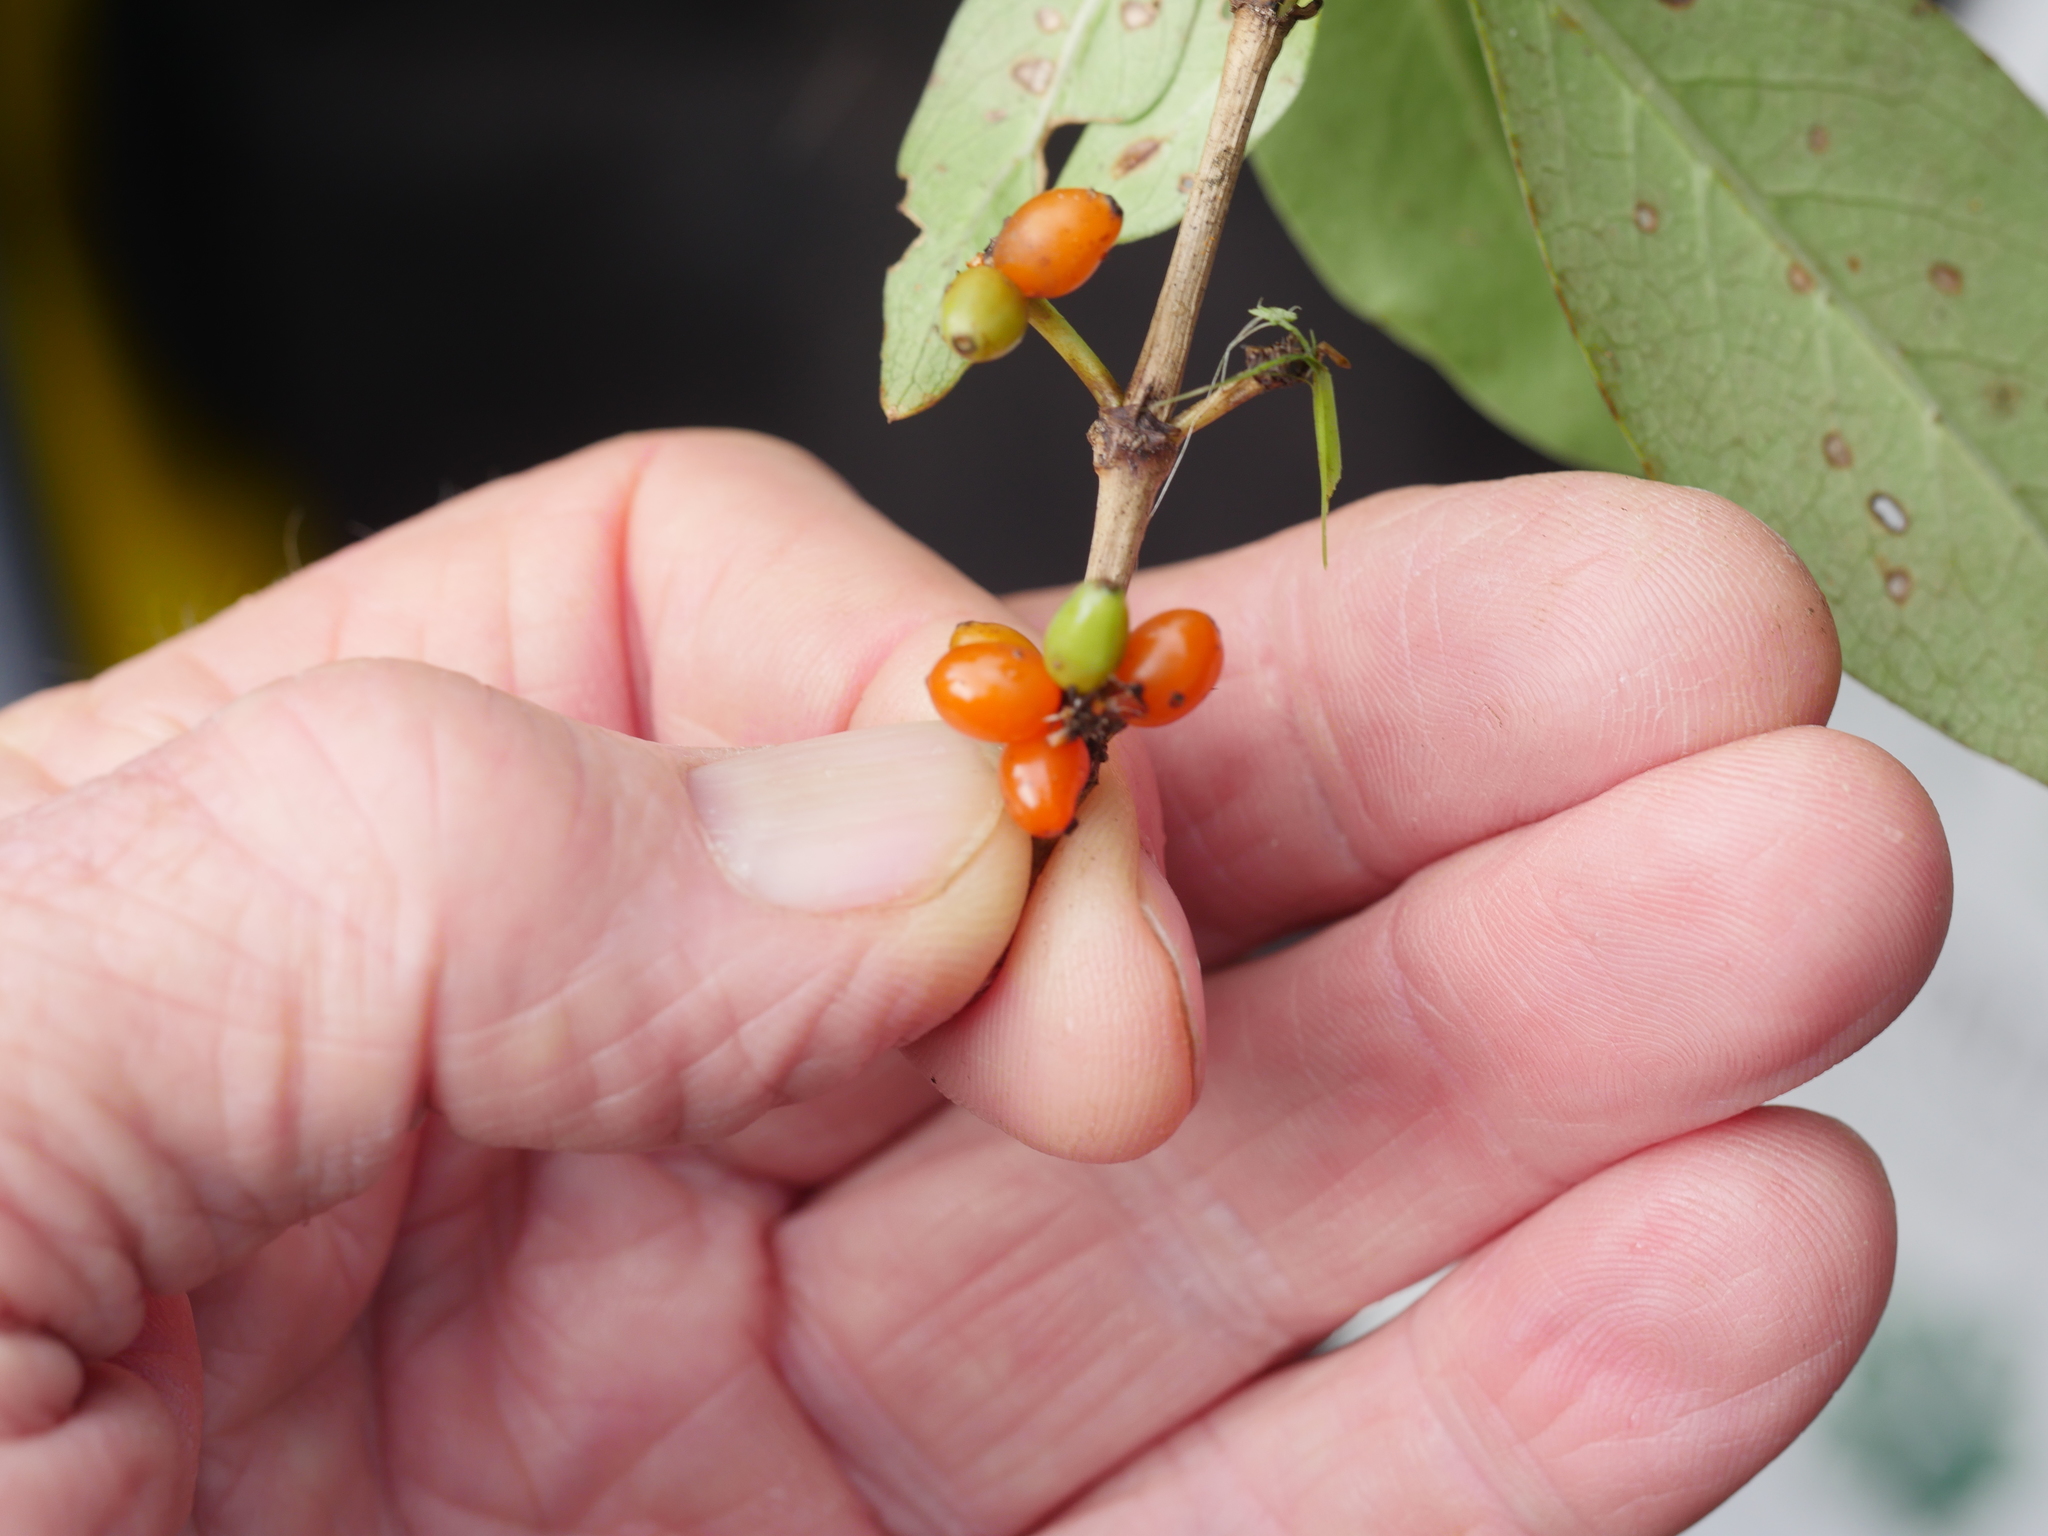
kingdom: Plantae
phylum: Tracheophyta
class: Magnoliopsida
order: Gentianales
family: Rubiaceae
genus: Coprosma
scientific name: Coprosma robusta
